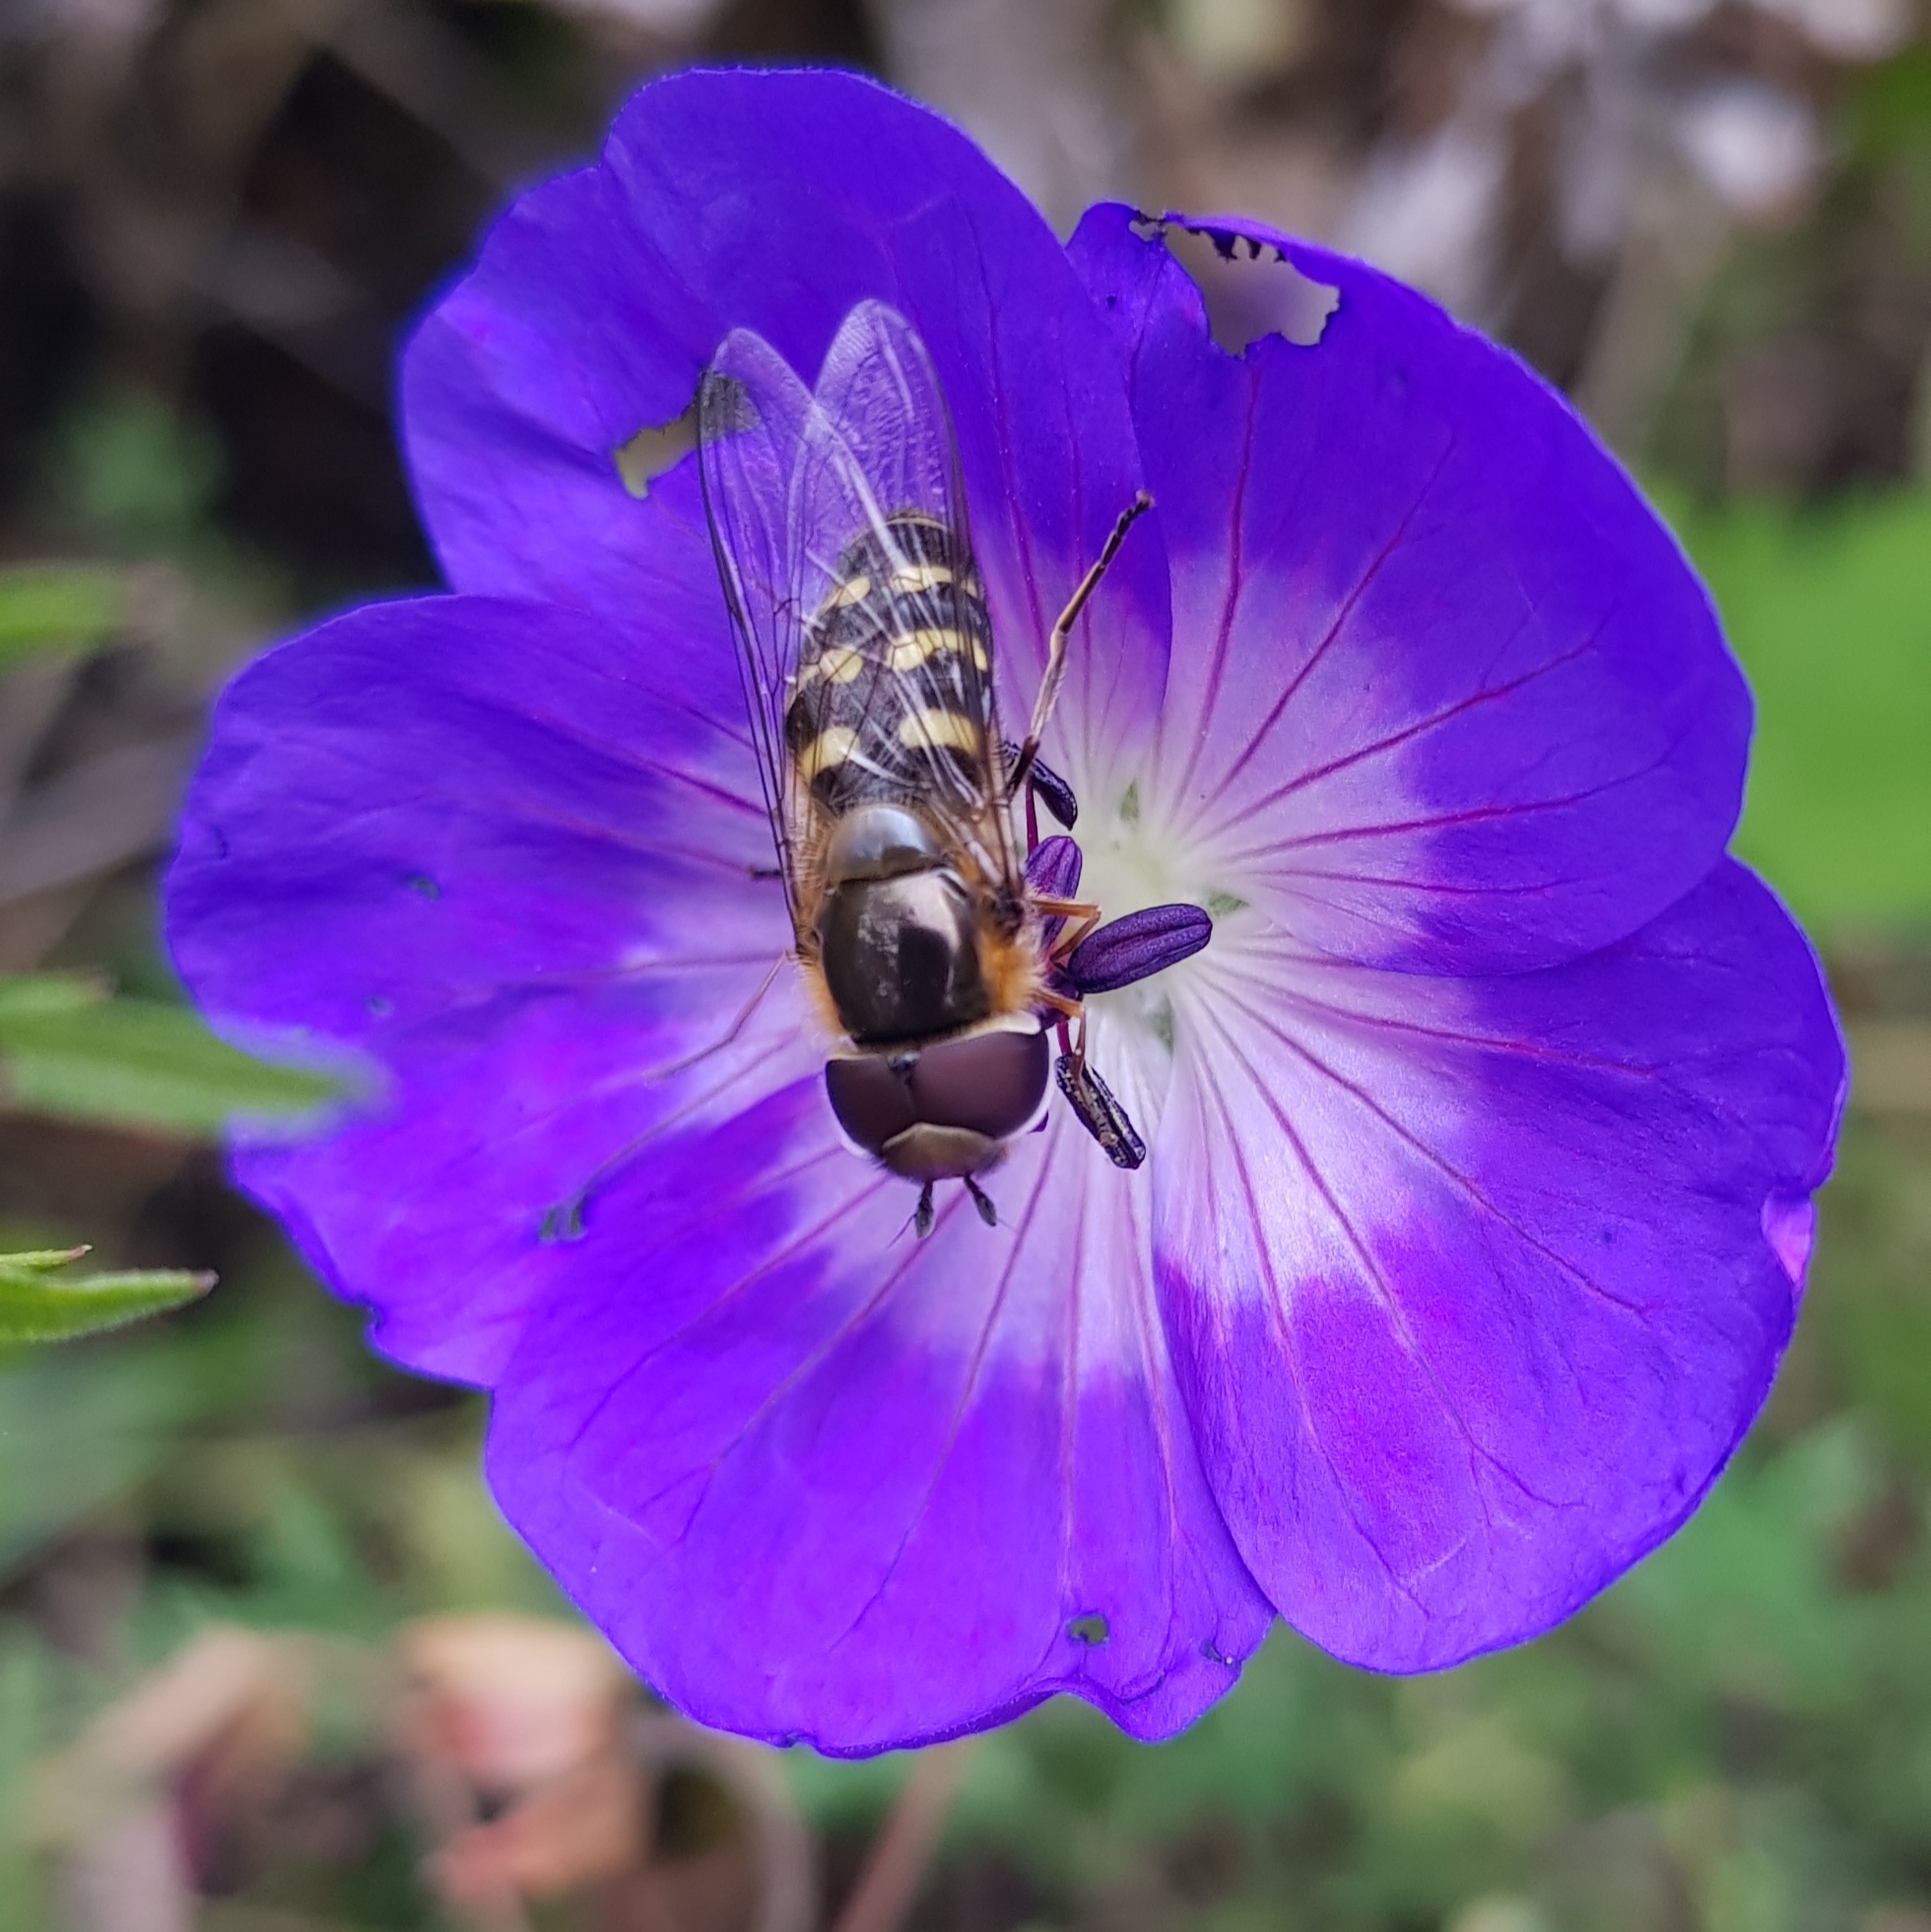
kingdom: Animalia
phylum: Arthropoda
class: Insecta
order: Diptera
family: Syrphidae
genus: Scaeva
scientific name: Scaeva selenitica
